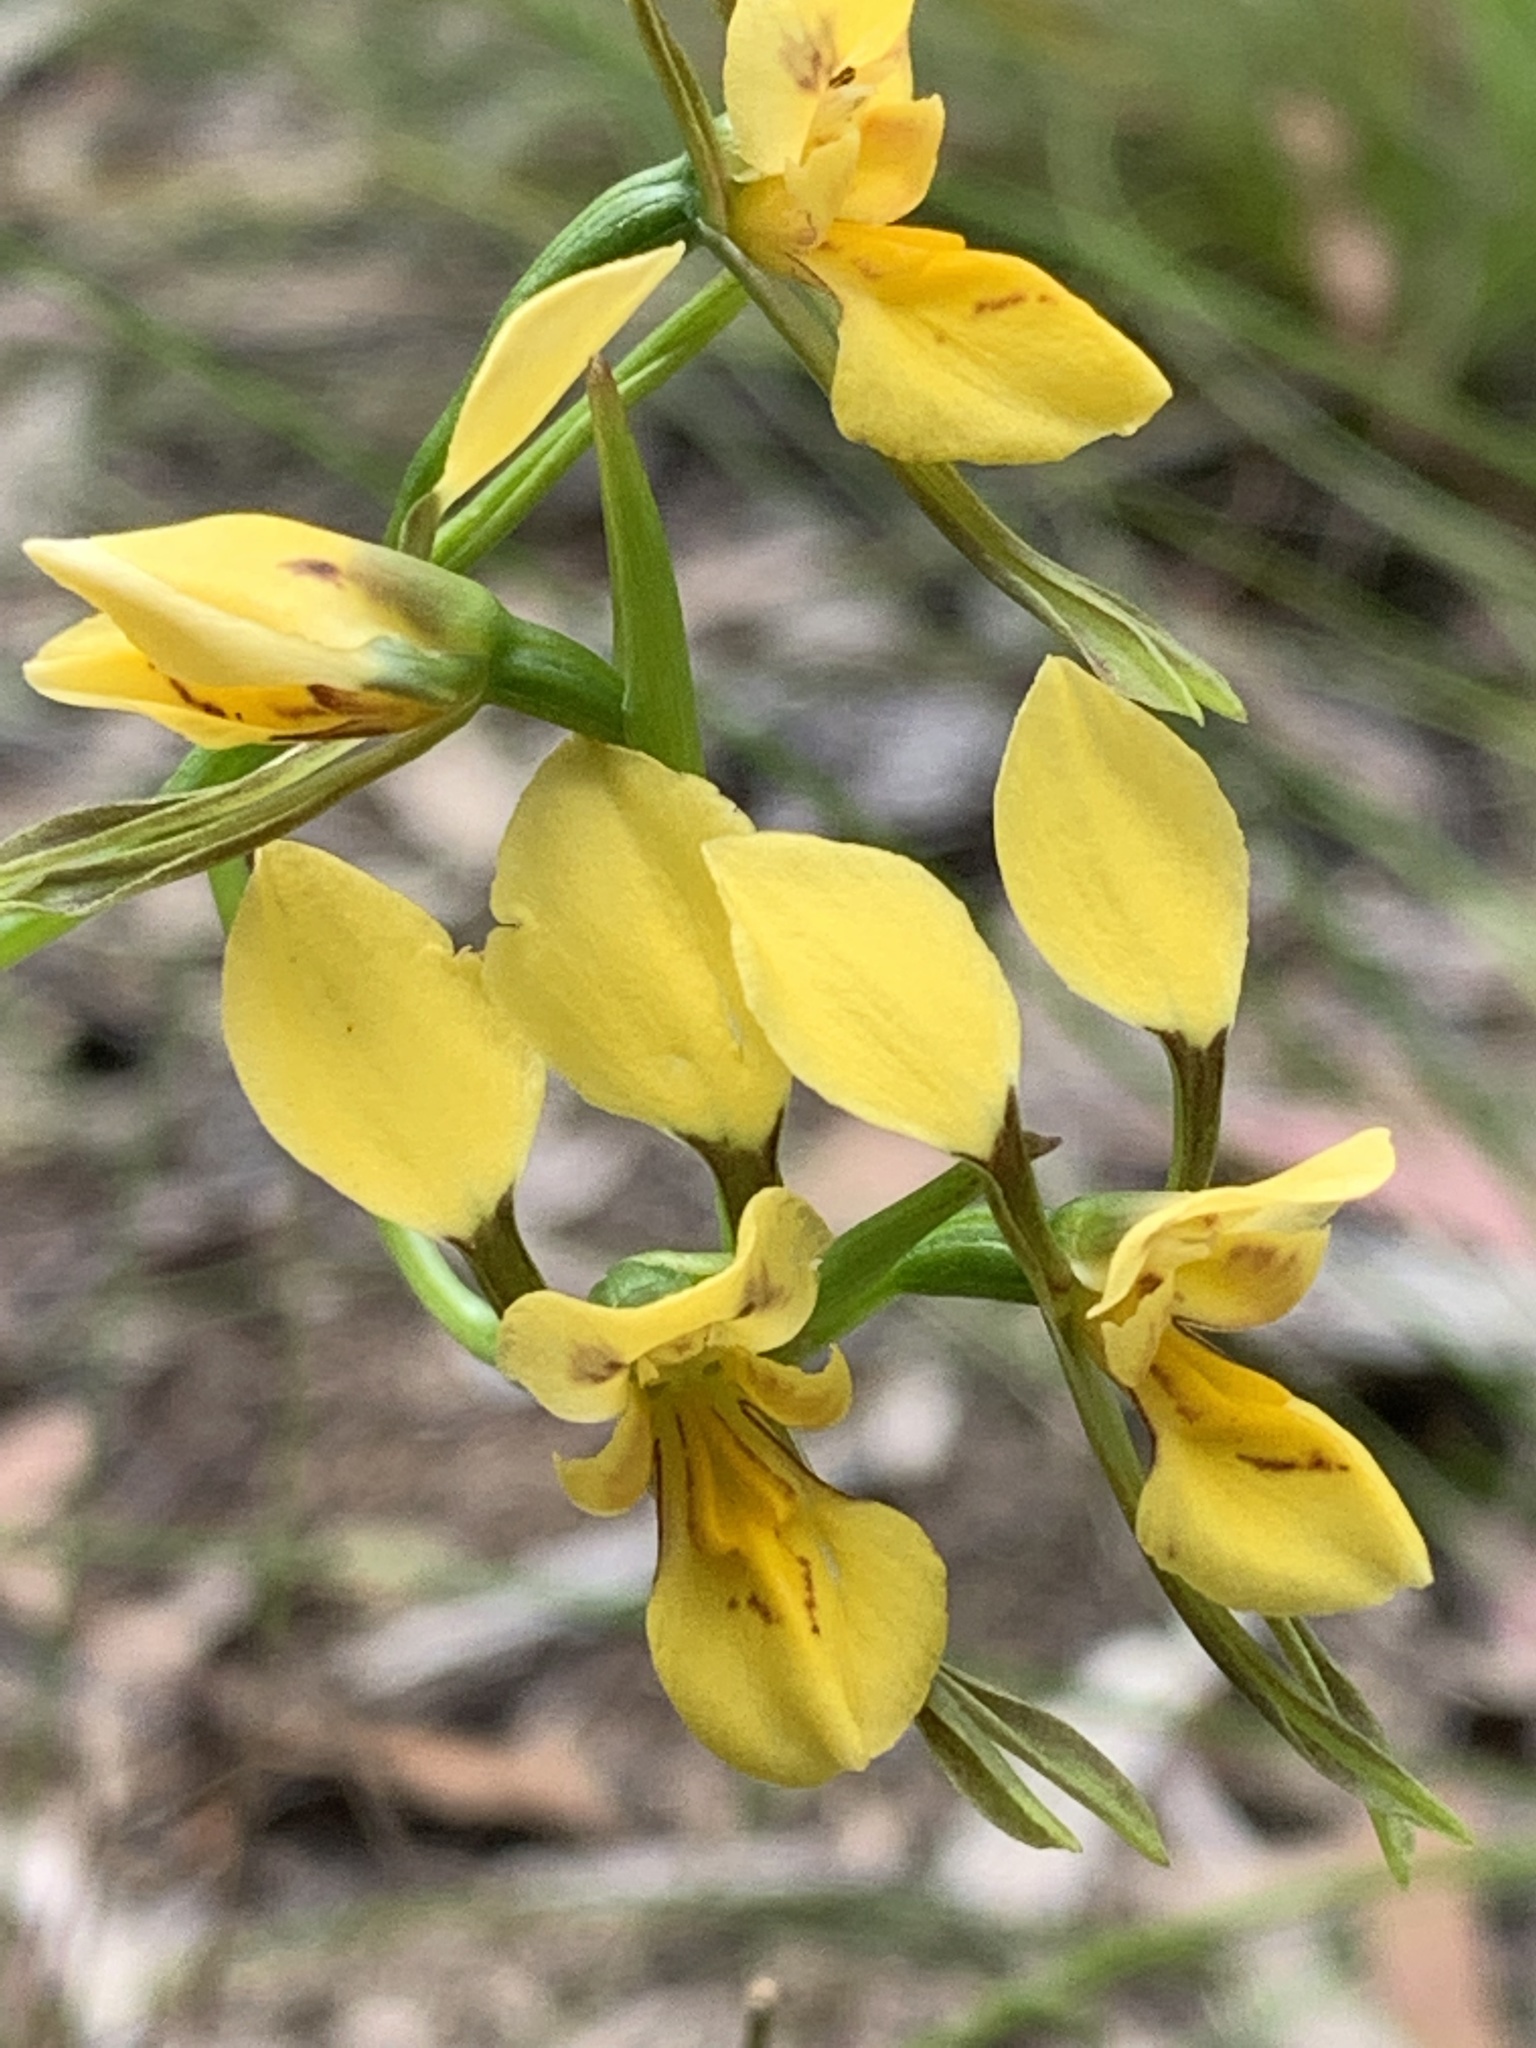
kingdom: Plantae
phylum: Tracheophyta
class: Liliopsida
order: Asparagales
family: Orchidaceae
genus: Diuris
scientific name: Diuris aurea
